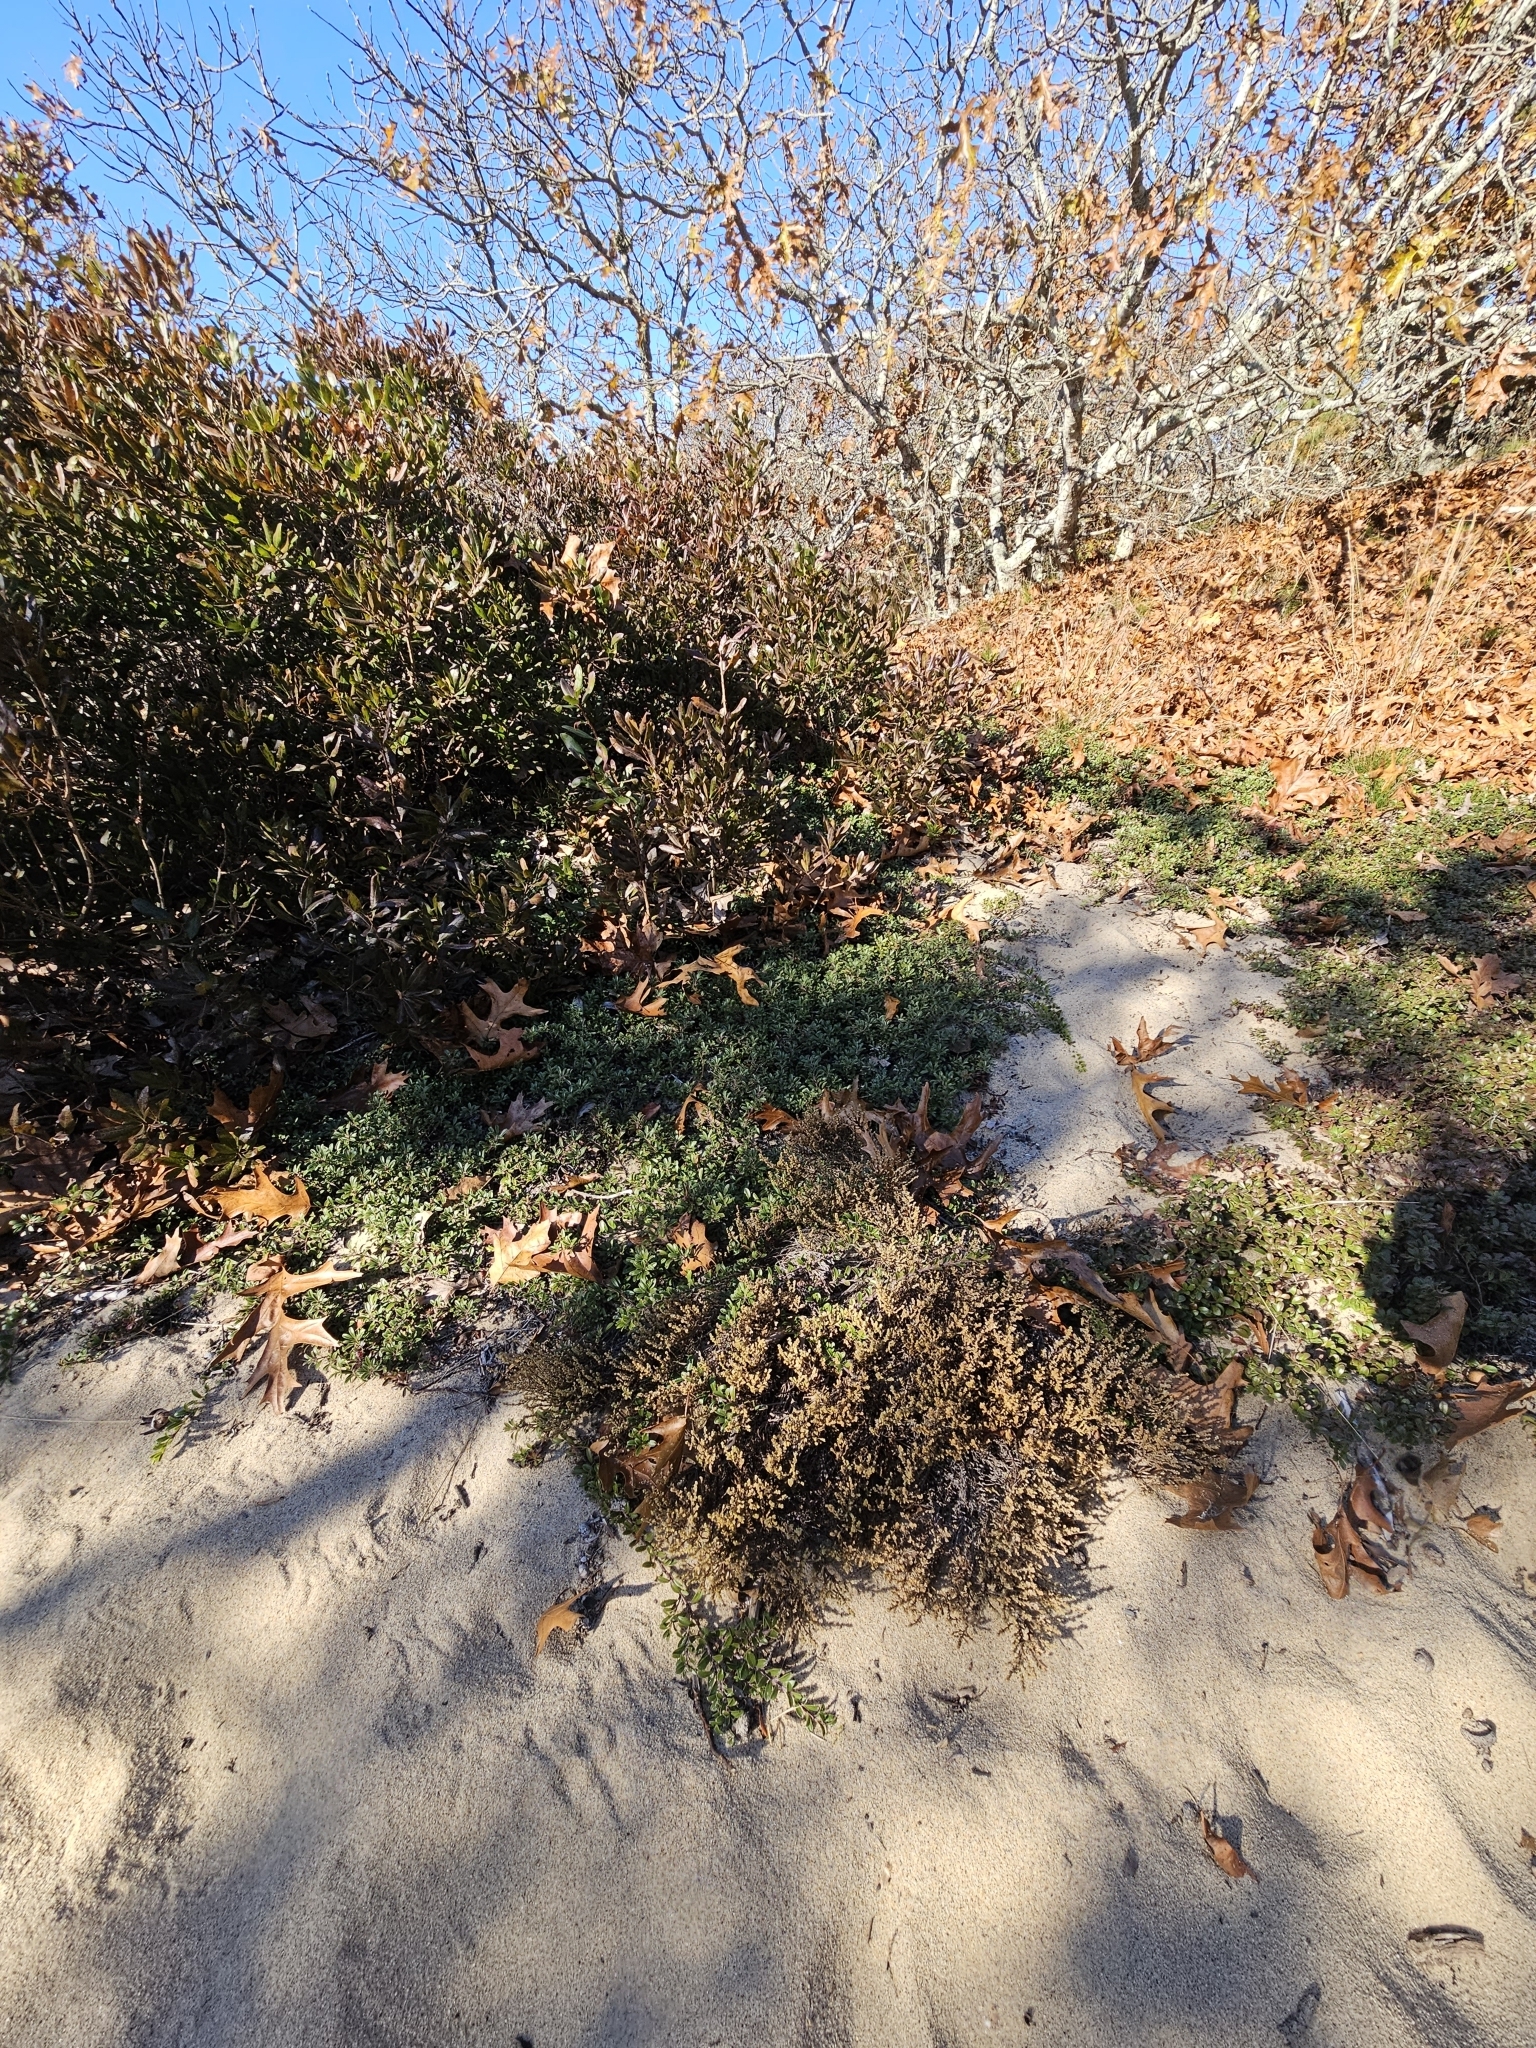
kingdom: Plantae
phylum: Tracheophyta
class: Magnoliopsida
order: Malvales
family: Cistaceae
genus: Hudsonia
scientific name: Hudsonia tomentosa
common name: Beach-heath
